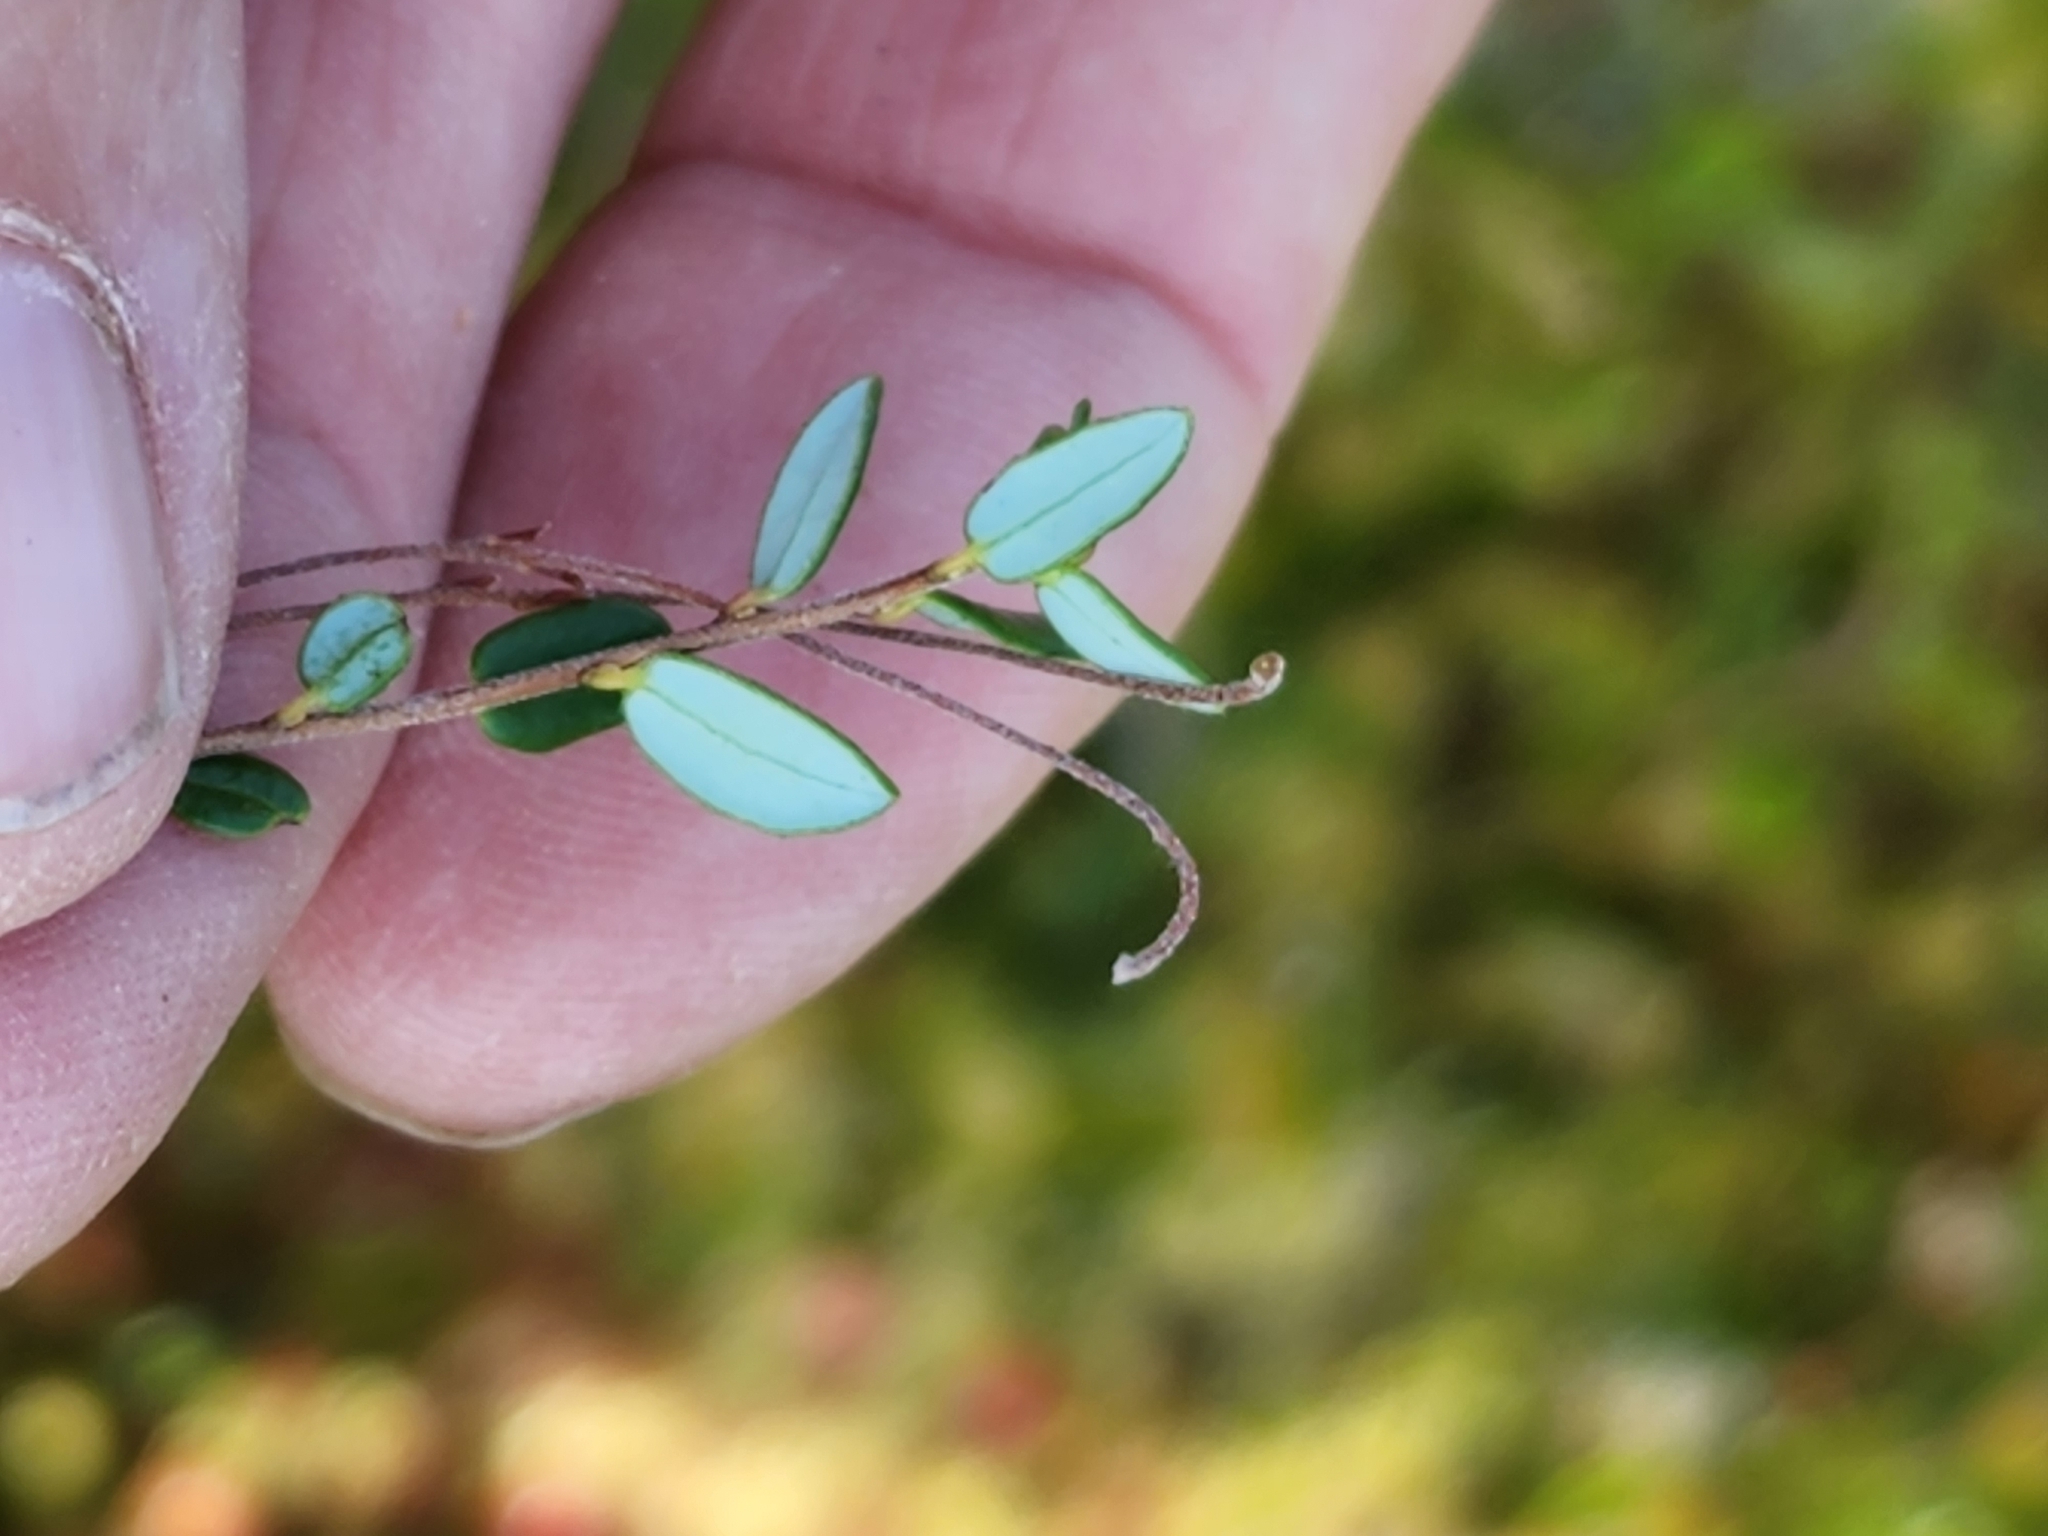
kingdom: Plantae
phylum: Tracheophyta
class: Magnoliopsida
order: Ericales
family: Ericaceae
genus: Vaccinium
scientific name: Vaccinium oxycoccos
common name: Cranberry
